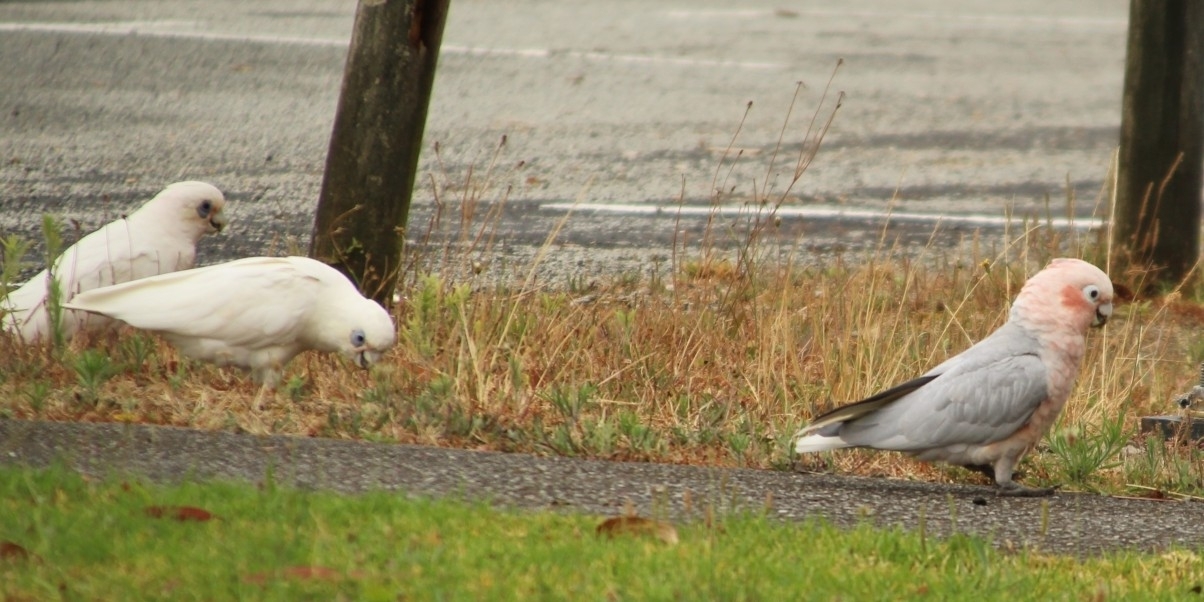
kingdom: Animalia
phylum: Chordata
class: Aves
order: Psittaciformes
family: Cacatuidae
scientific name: Cacatuidae
